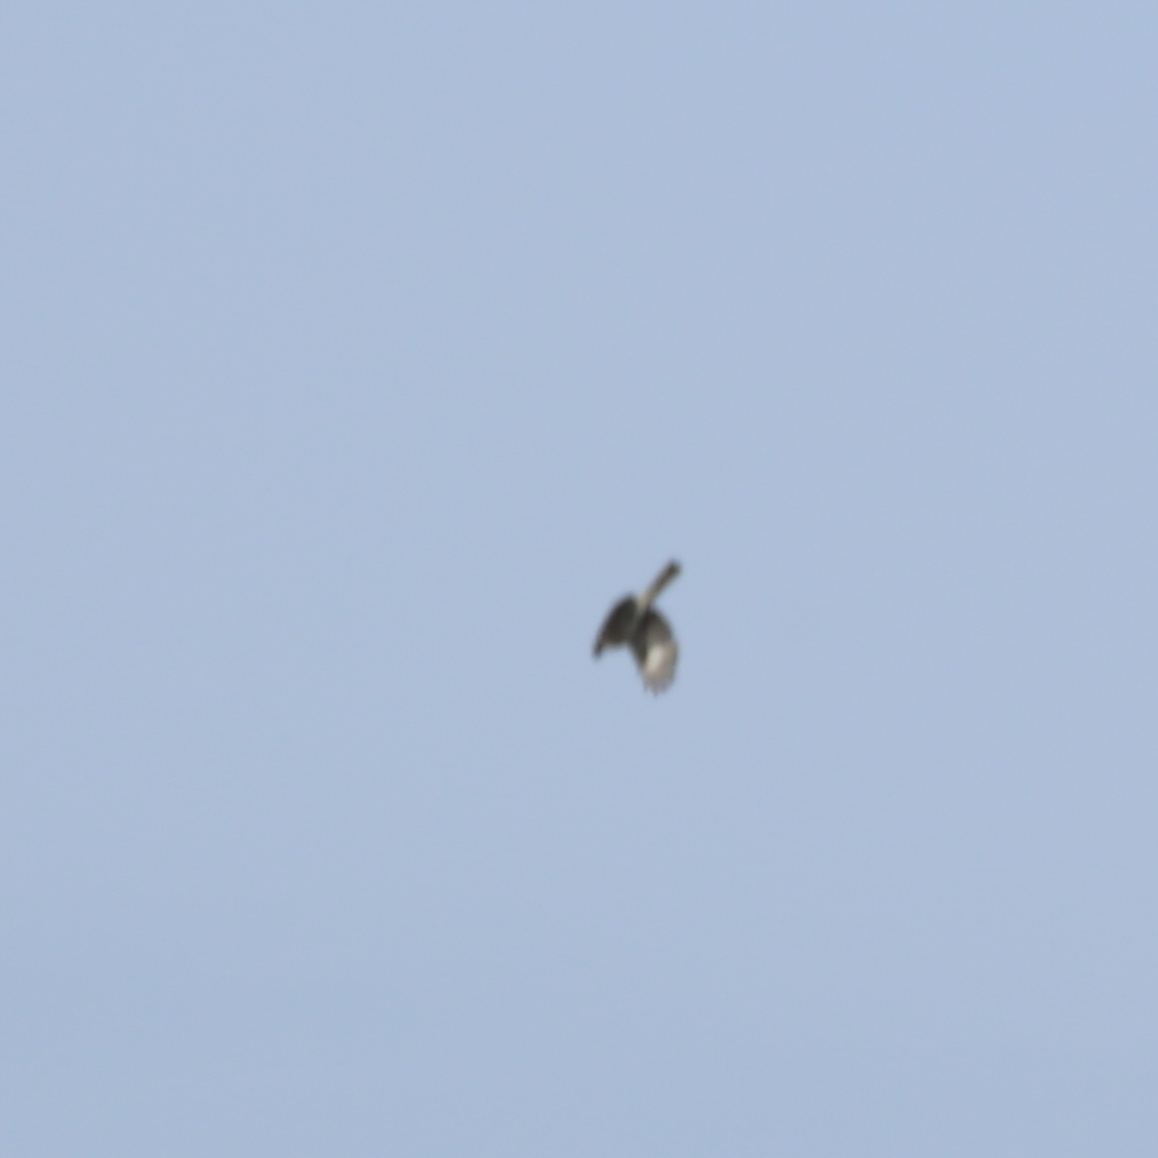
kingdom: Animalia
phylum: Chordata
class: Aves
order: Passeriformes
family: Laniidae
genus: Lanius
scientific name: Lanius excubitor
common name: Great grey shrike
